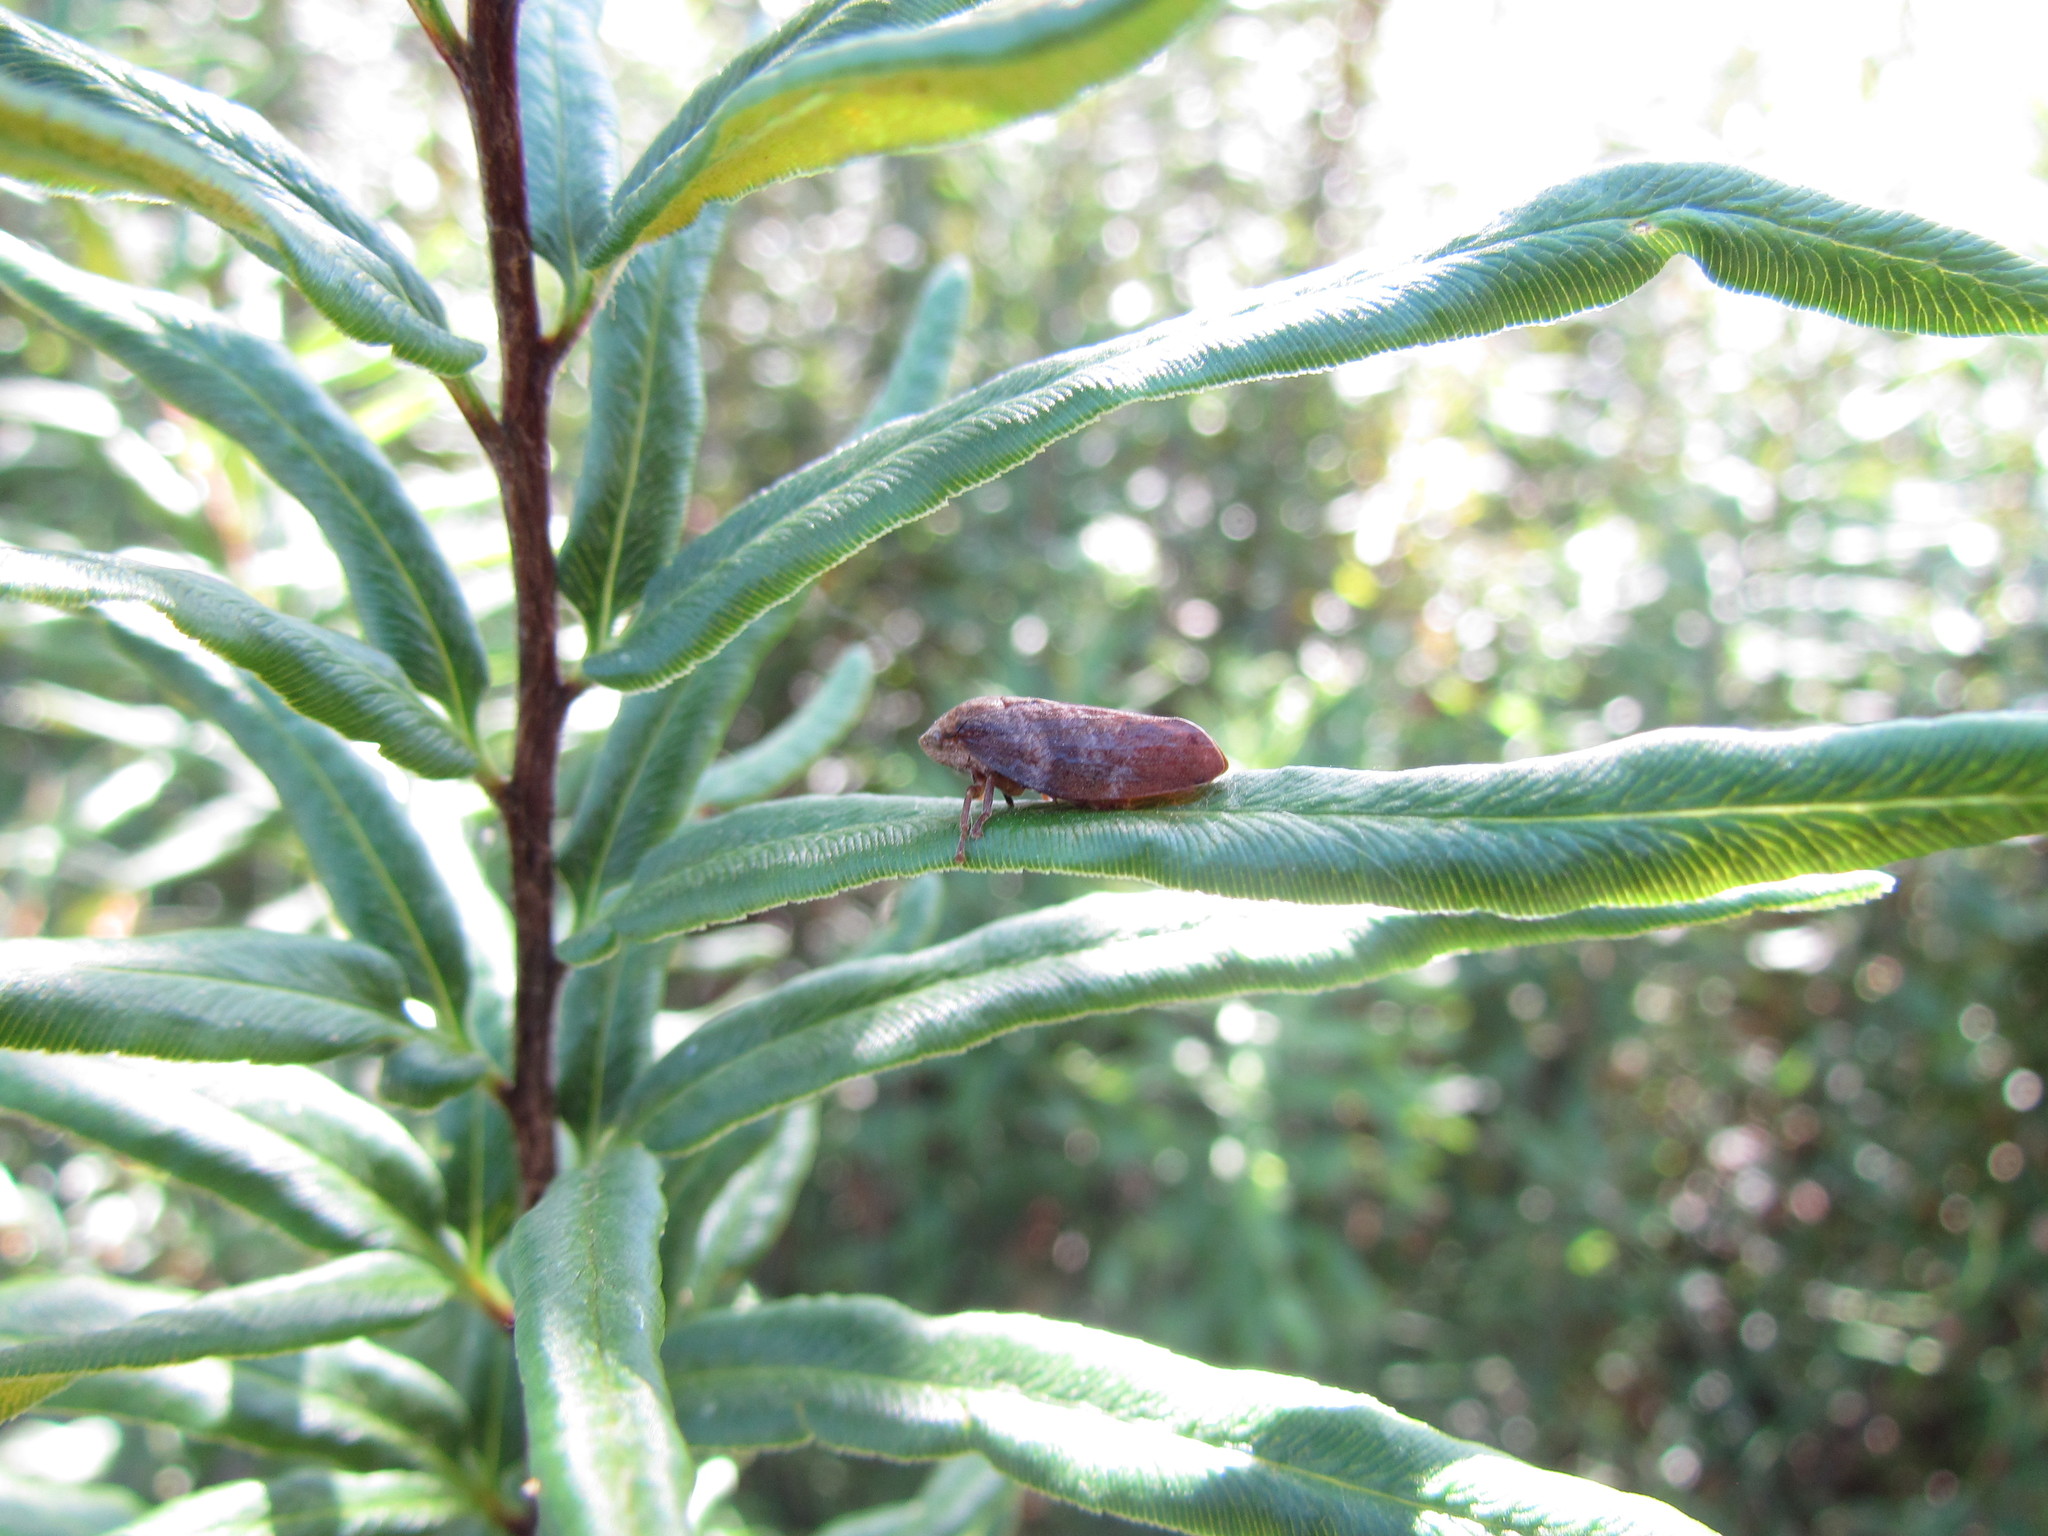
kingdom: Animalia
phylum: Arthropoda
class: Insecta
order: Hemiptera
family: Aphrophoridae
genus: Cephisus
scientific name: Cephisus siccifolius
